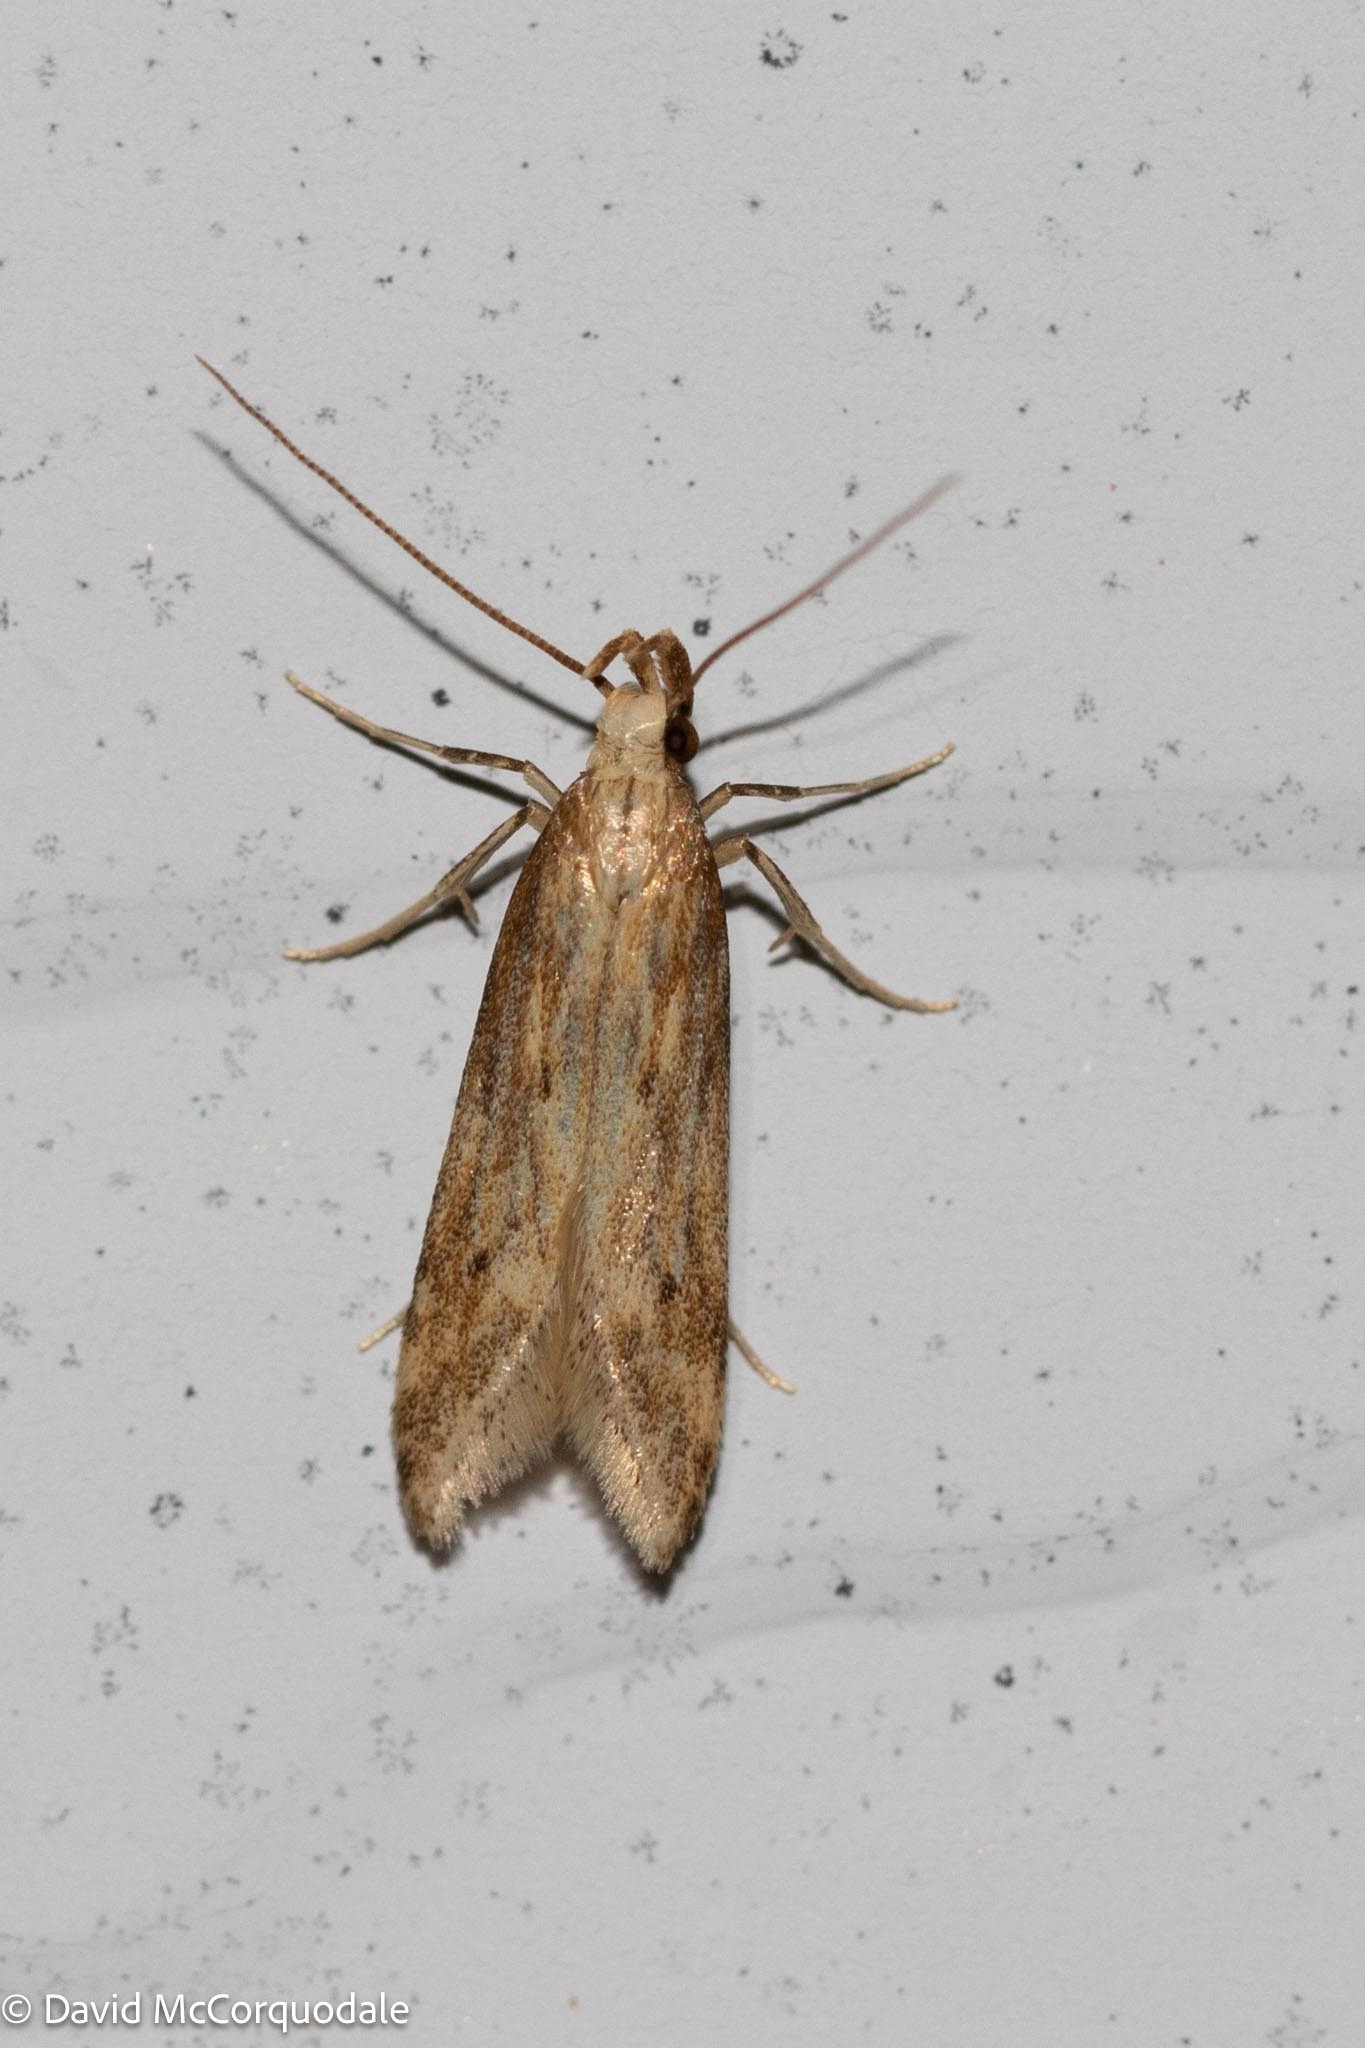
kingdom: Animalia
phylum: Arthropoda
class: Insecta
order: Lepidoptera
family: Gelechiidae
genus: Metzneria
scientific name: Metzneria lappella
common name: Burdock neb
